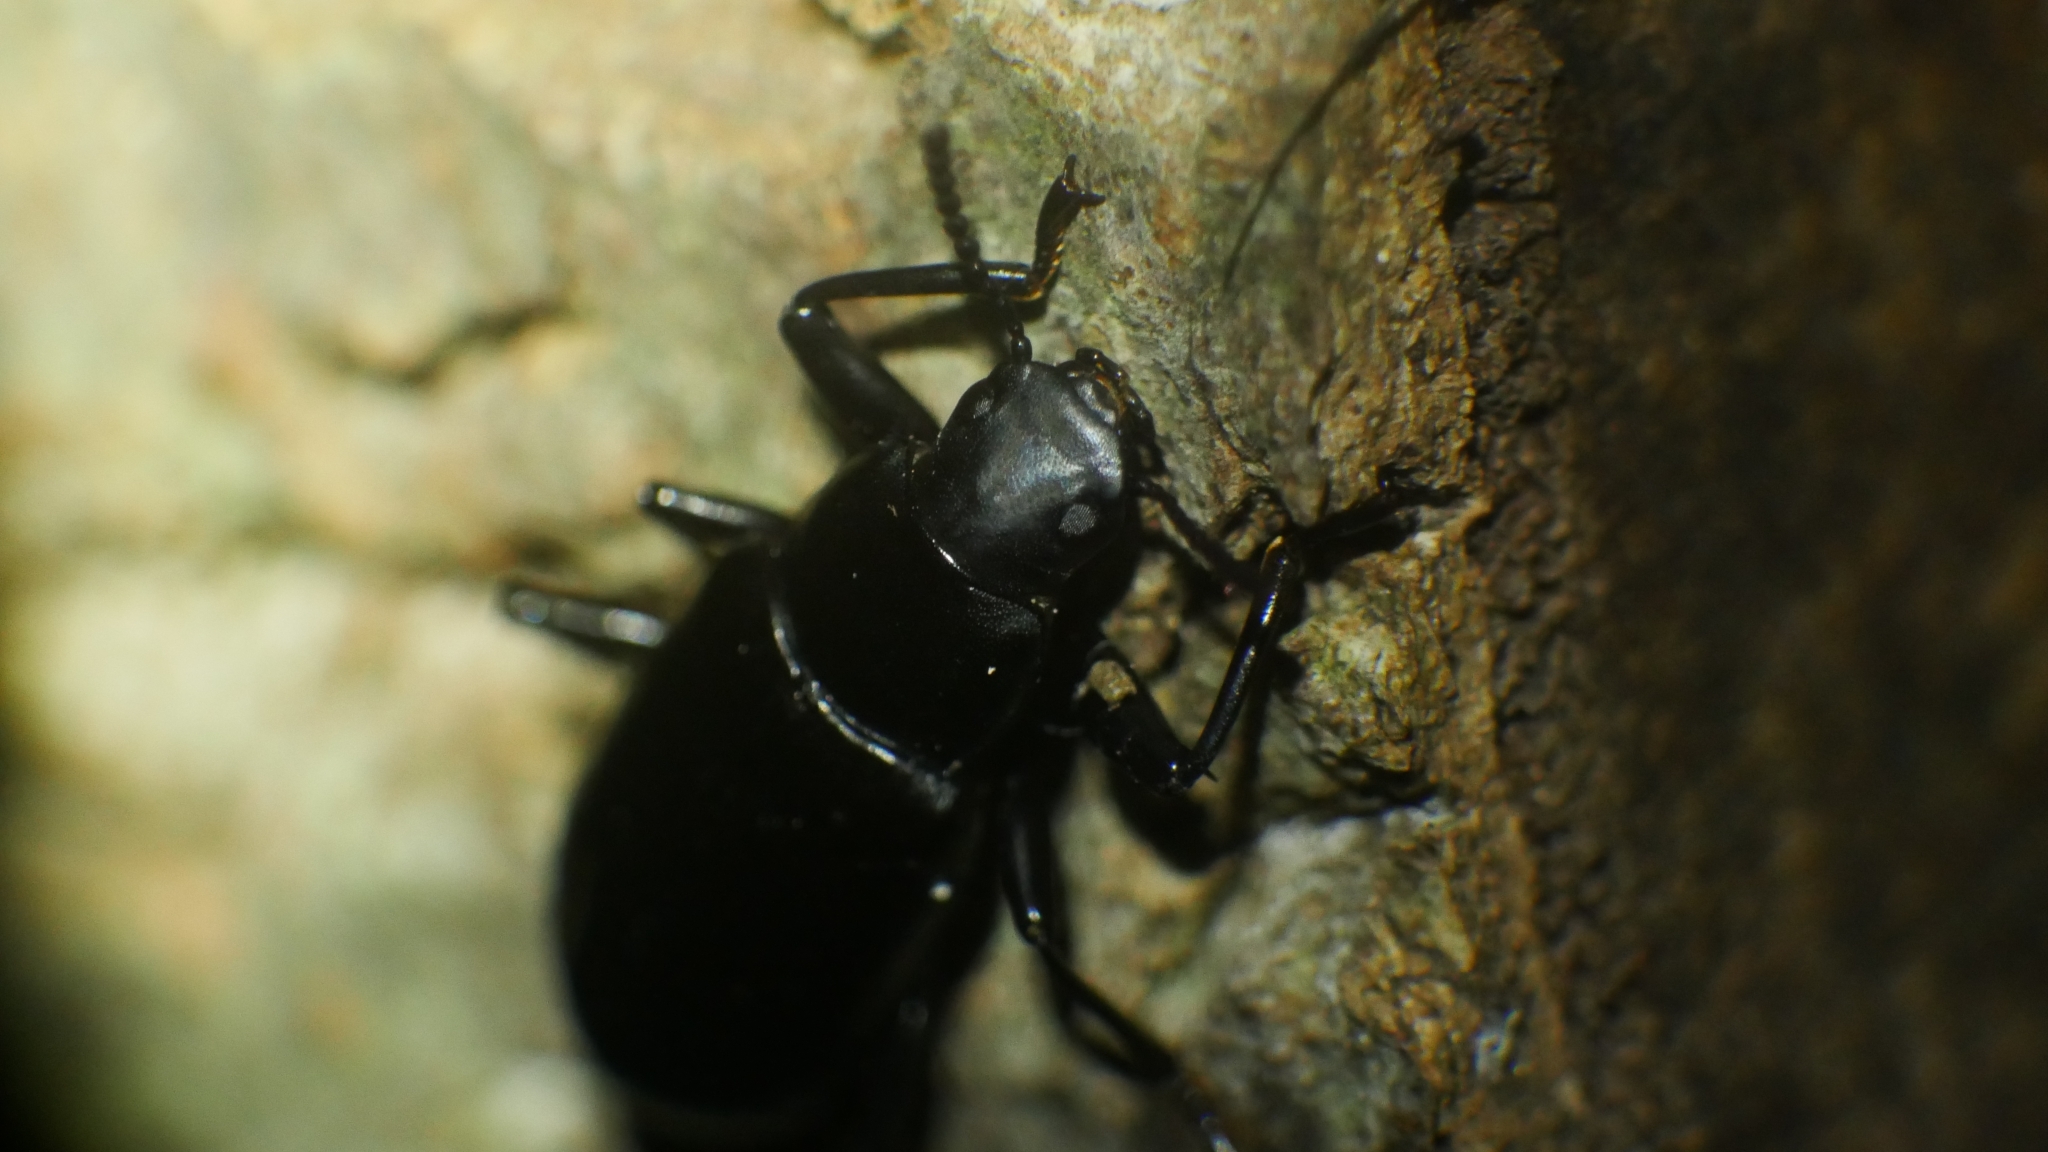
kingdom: Animalia
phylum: Arthropoda
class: Insecta
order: Coleoptera
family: Tenebrionidae
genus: Alobates
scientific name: Alobates
